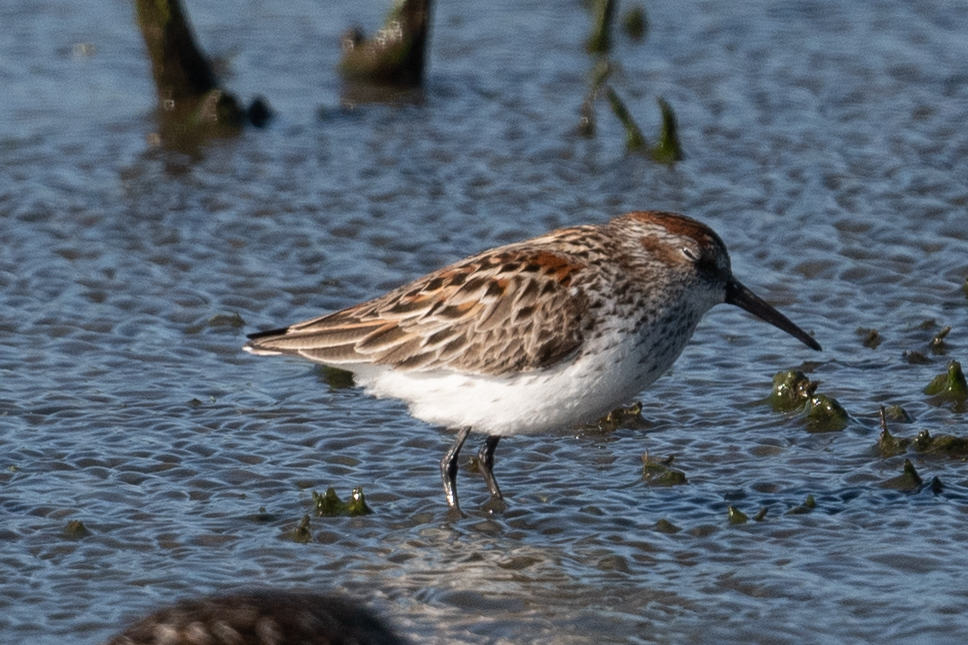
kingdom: Animalia
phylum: Chordata
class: Aves
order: Charadriiformes
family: Scolopacidae
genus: Calidris
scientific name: Calidris mauri
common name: Western sandpiper
